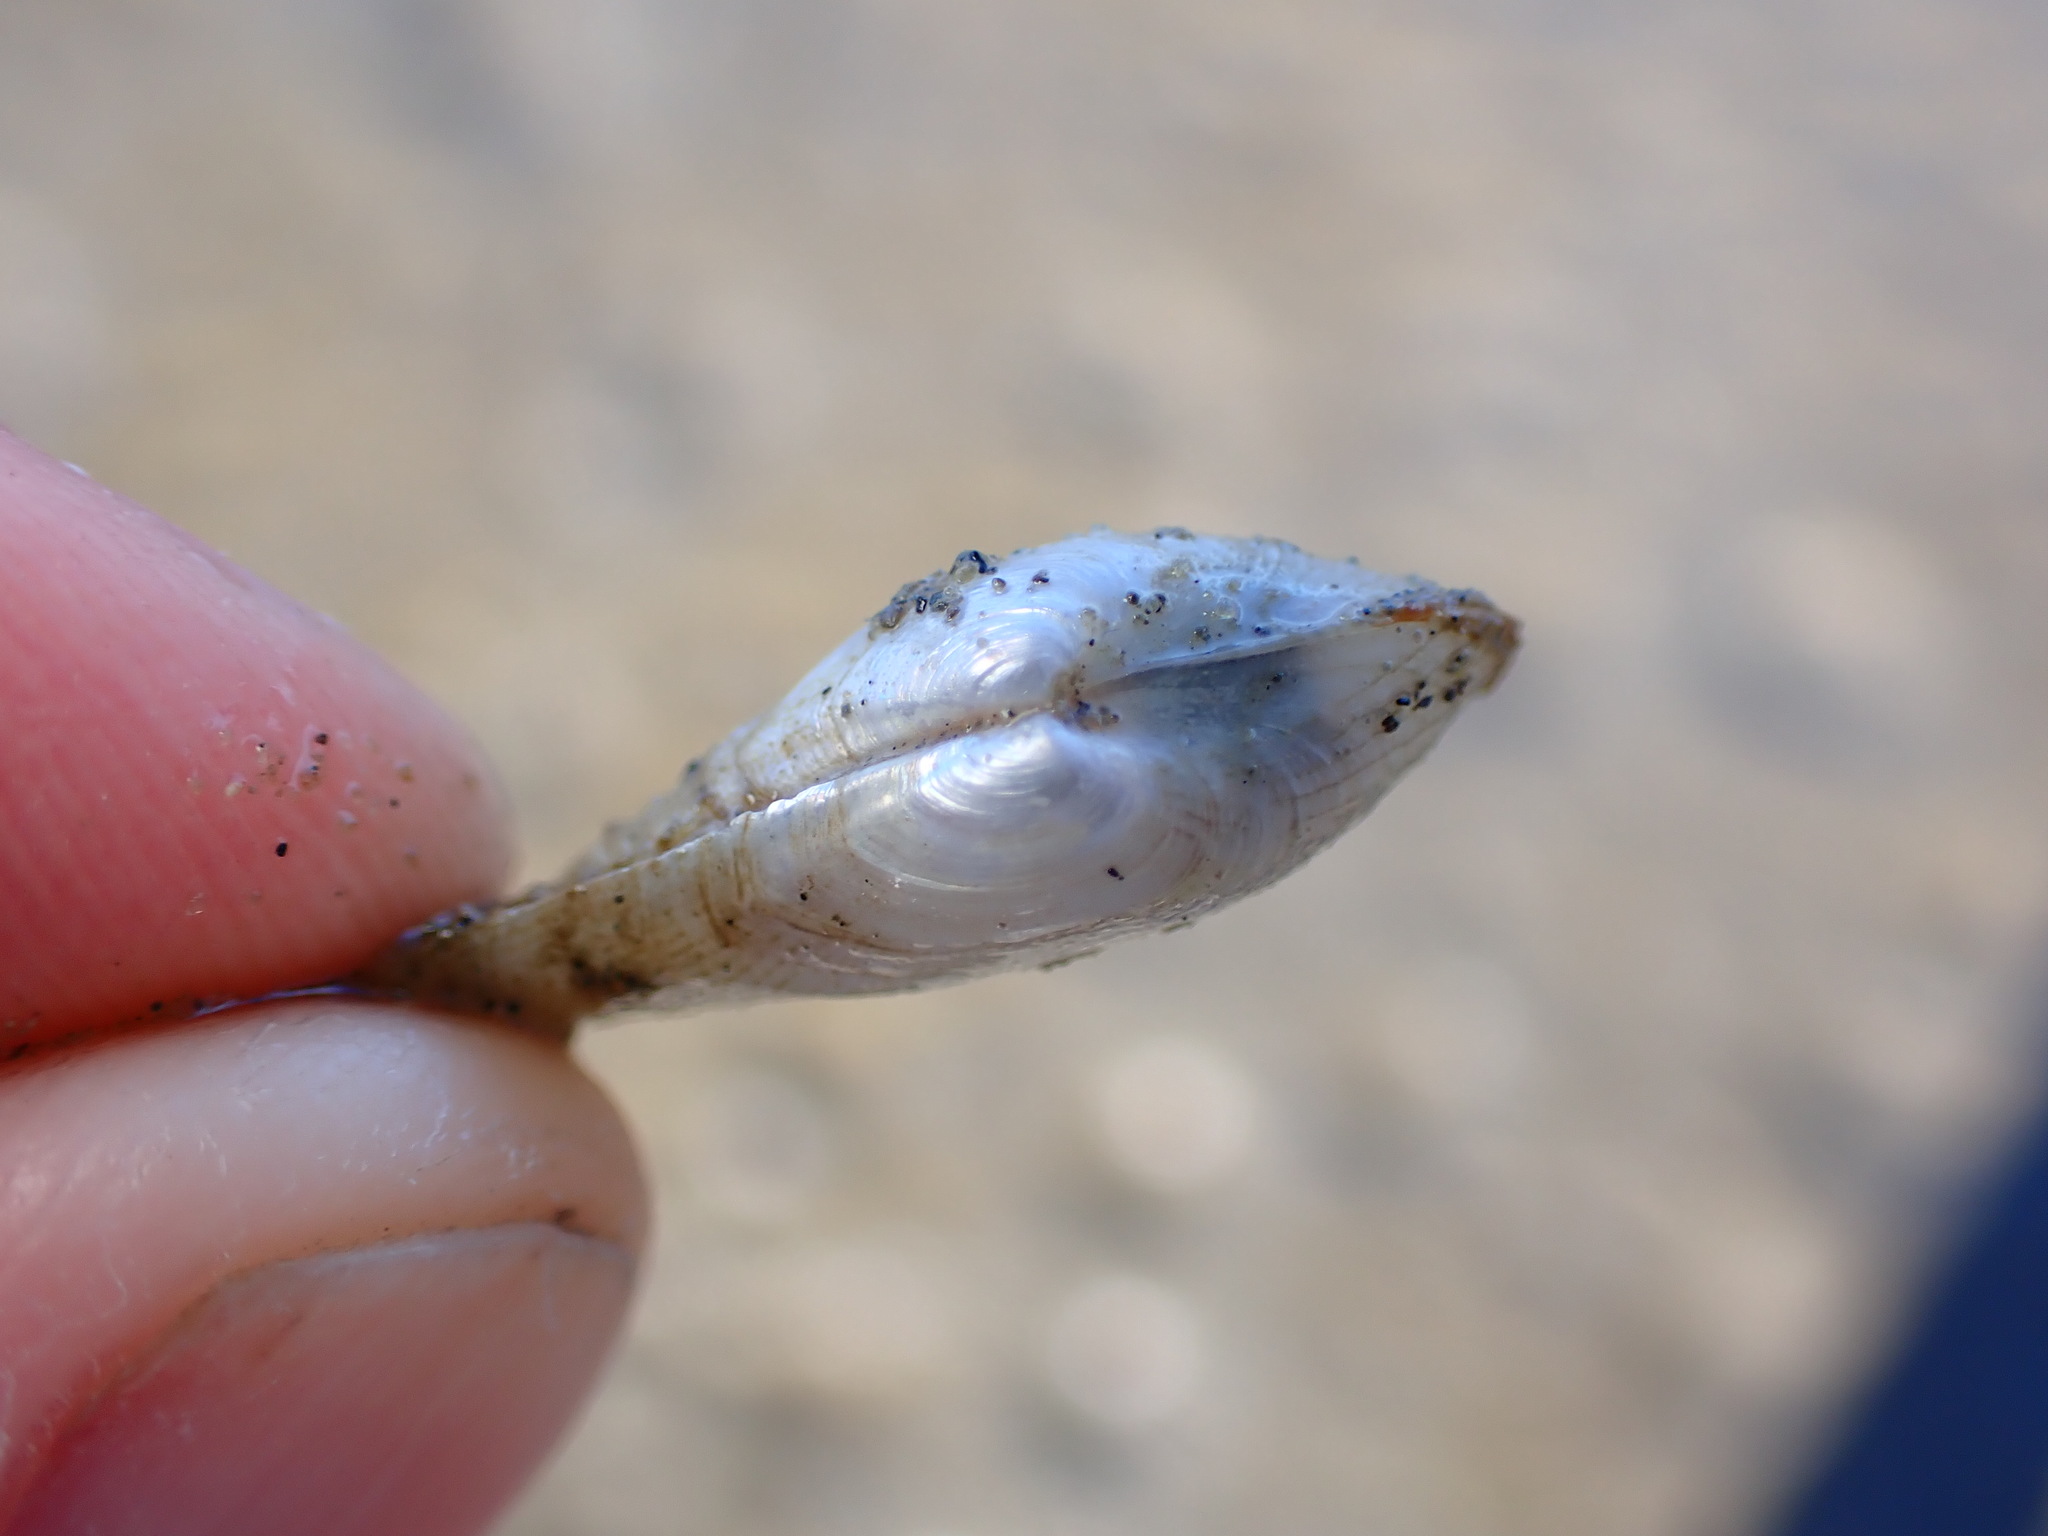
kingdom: Animalia
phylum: Mollusca
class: Bivalvia
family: Lyonsiidae
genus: Lyonsia
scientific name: Lyonsia californica
